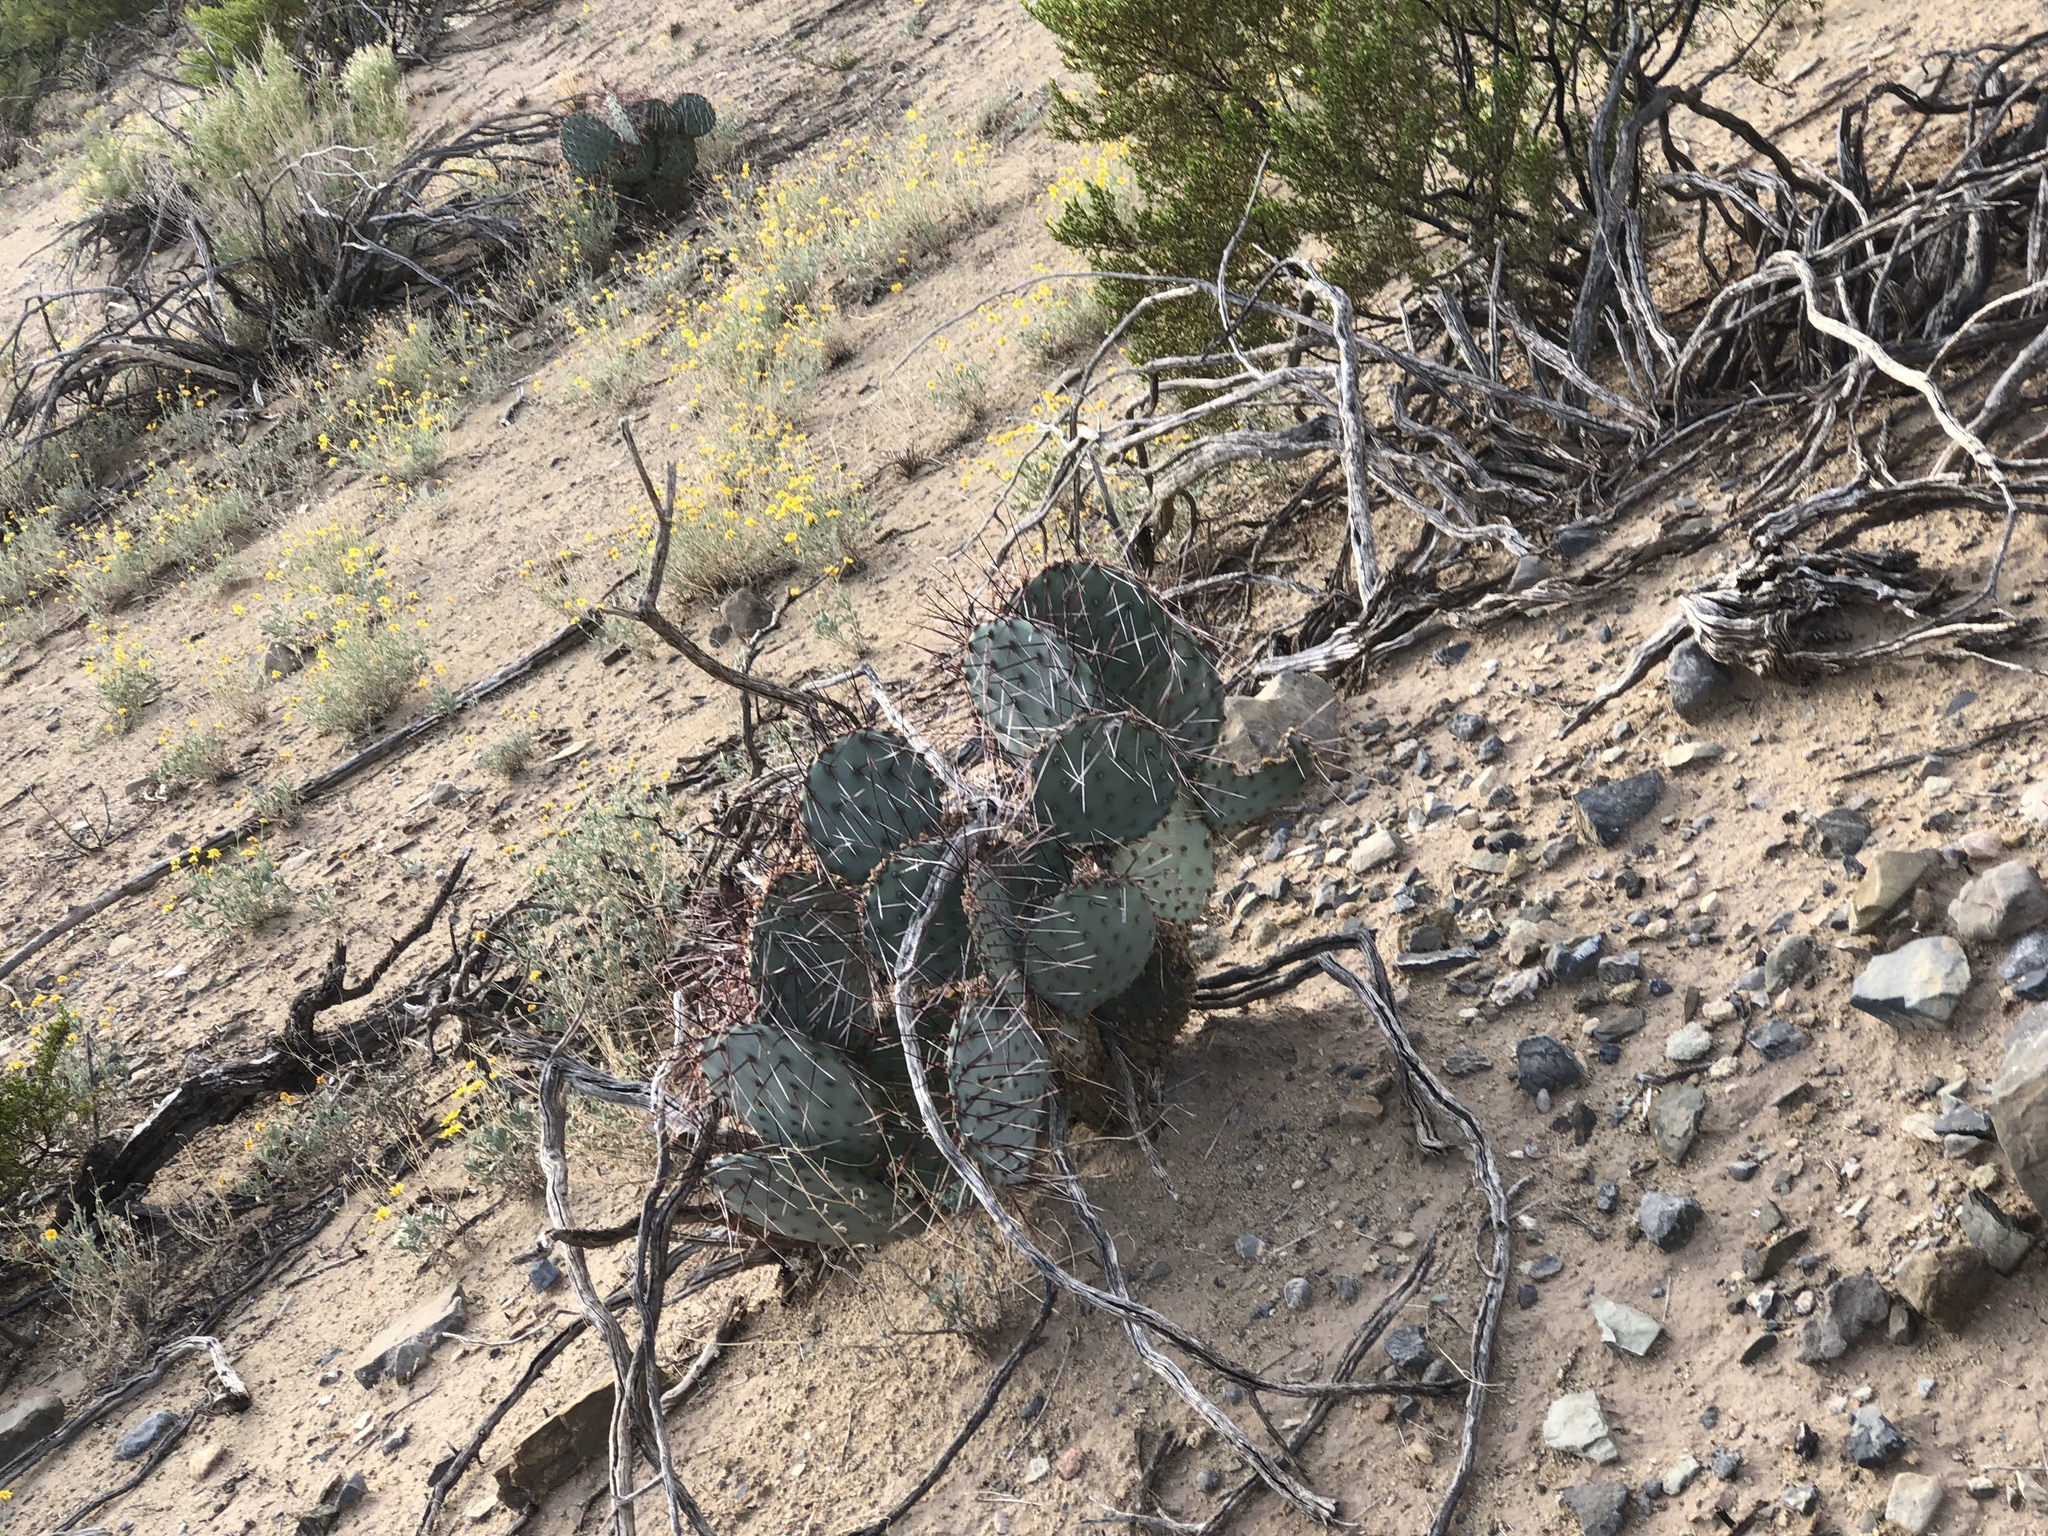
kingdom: Plantae
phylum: Tracheophyta
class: Magnoliopsida
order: Caryophyllales
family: Cactaceae
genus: Opuntia
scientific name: Opuntia macrocentra
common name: Purple prickly-pear
